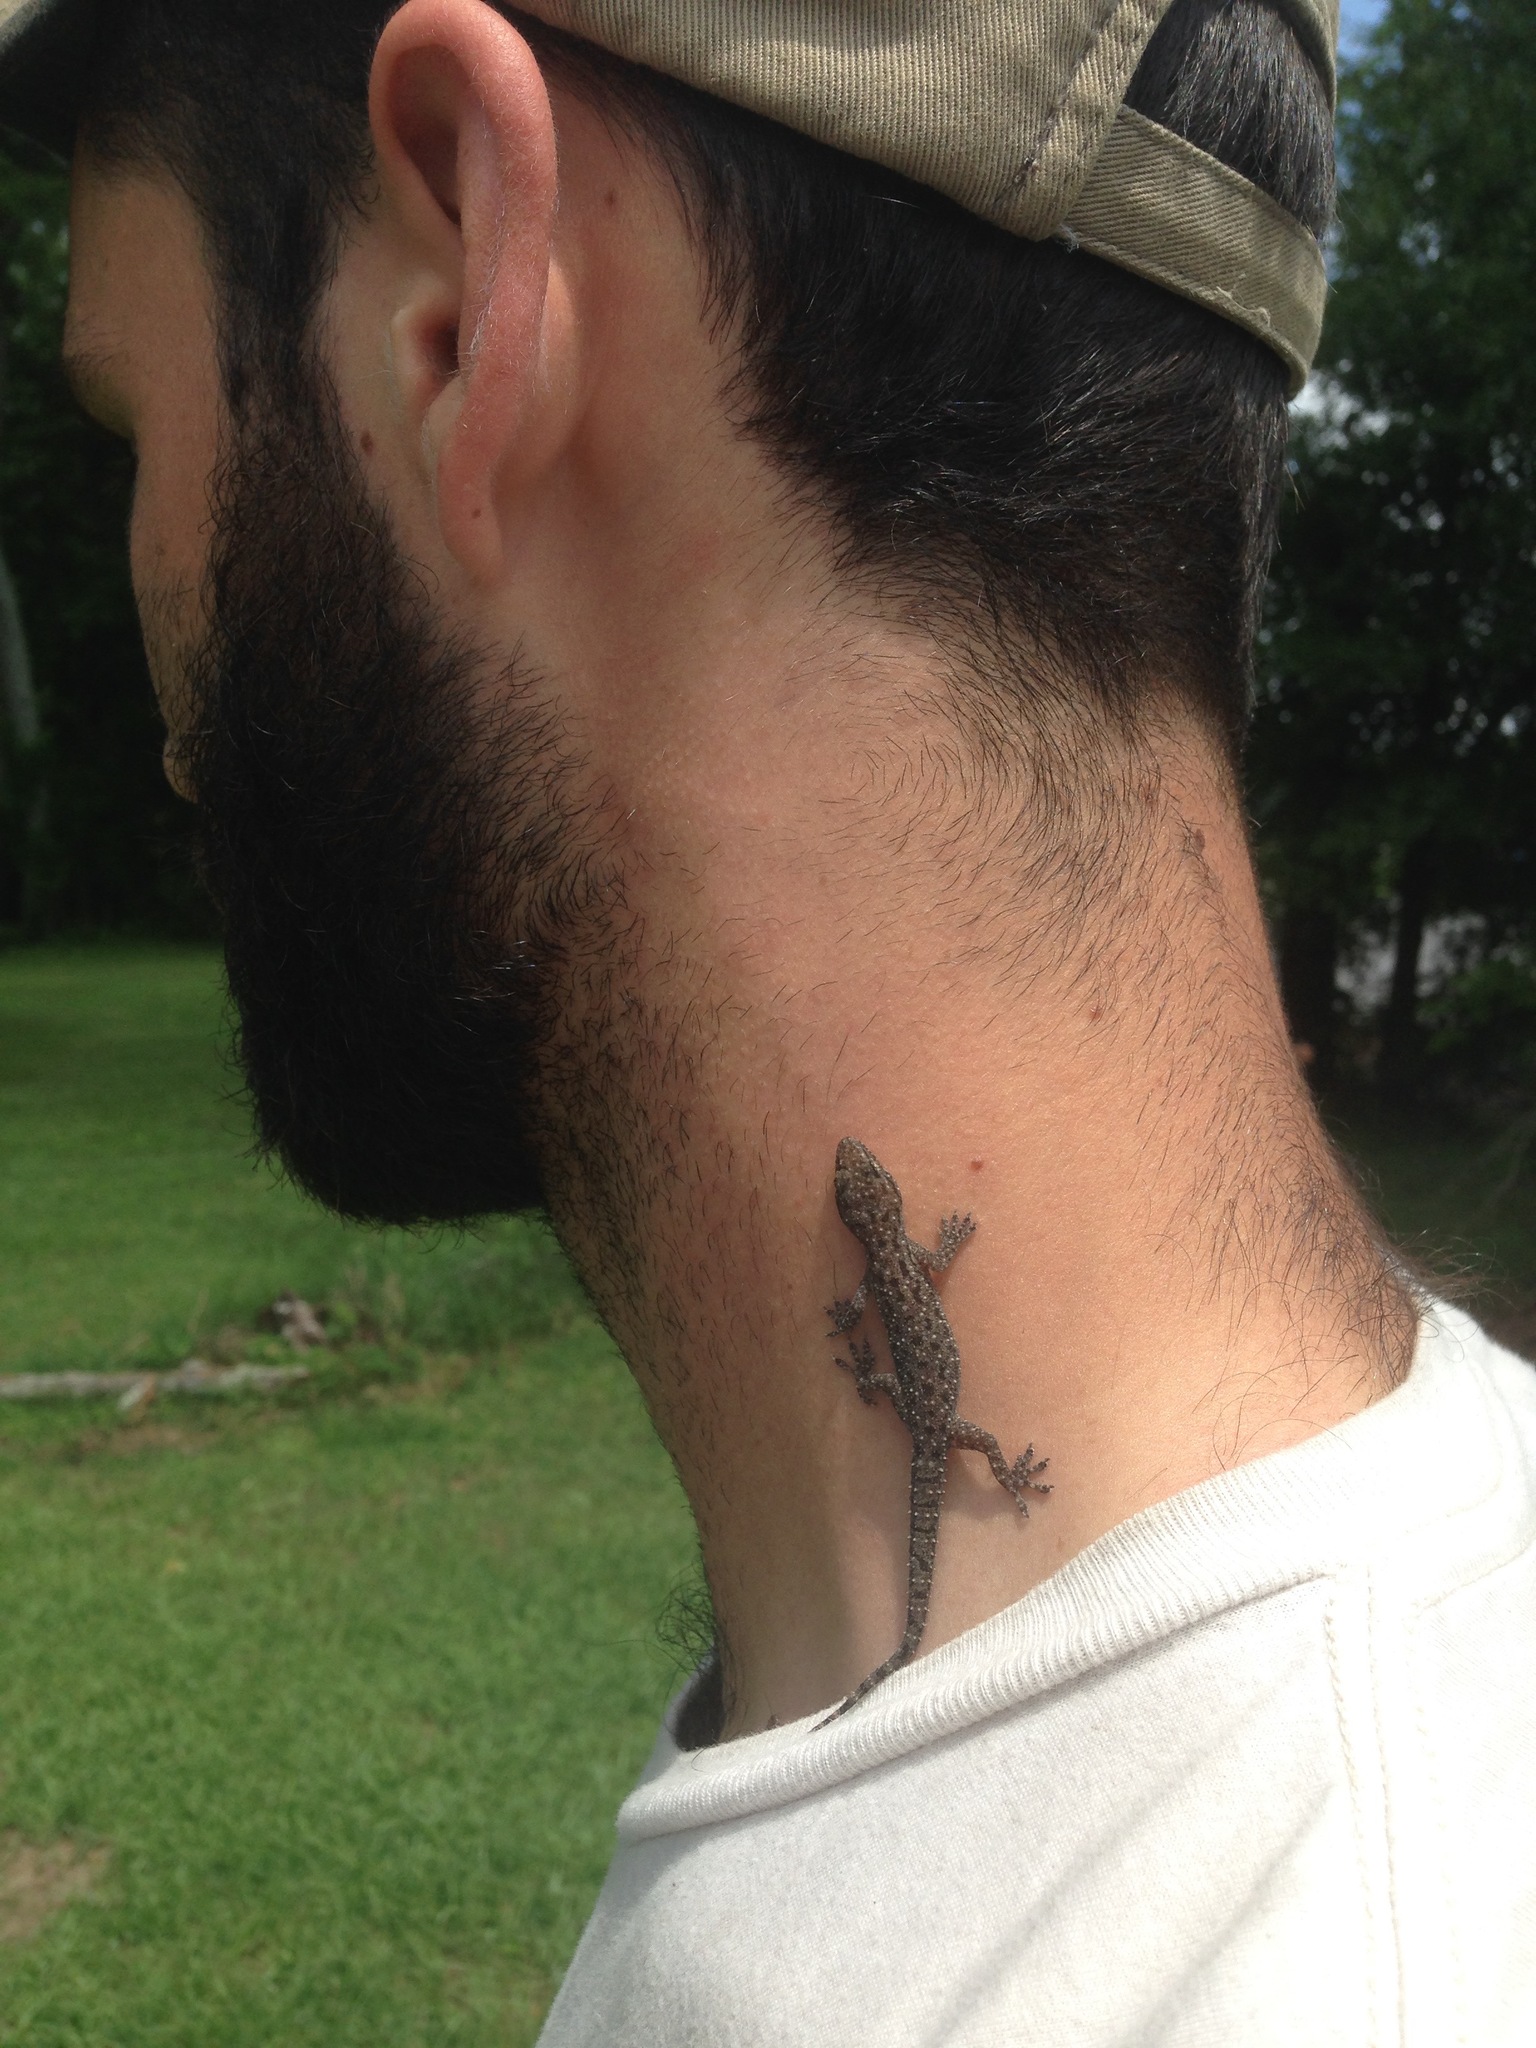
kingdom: Animalia
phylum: Chordata
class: Squamata
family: Gekkonidae
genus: Hemidactylus
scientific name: Hemidactylus parvimaculatus
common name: Spotted house gecko
